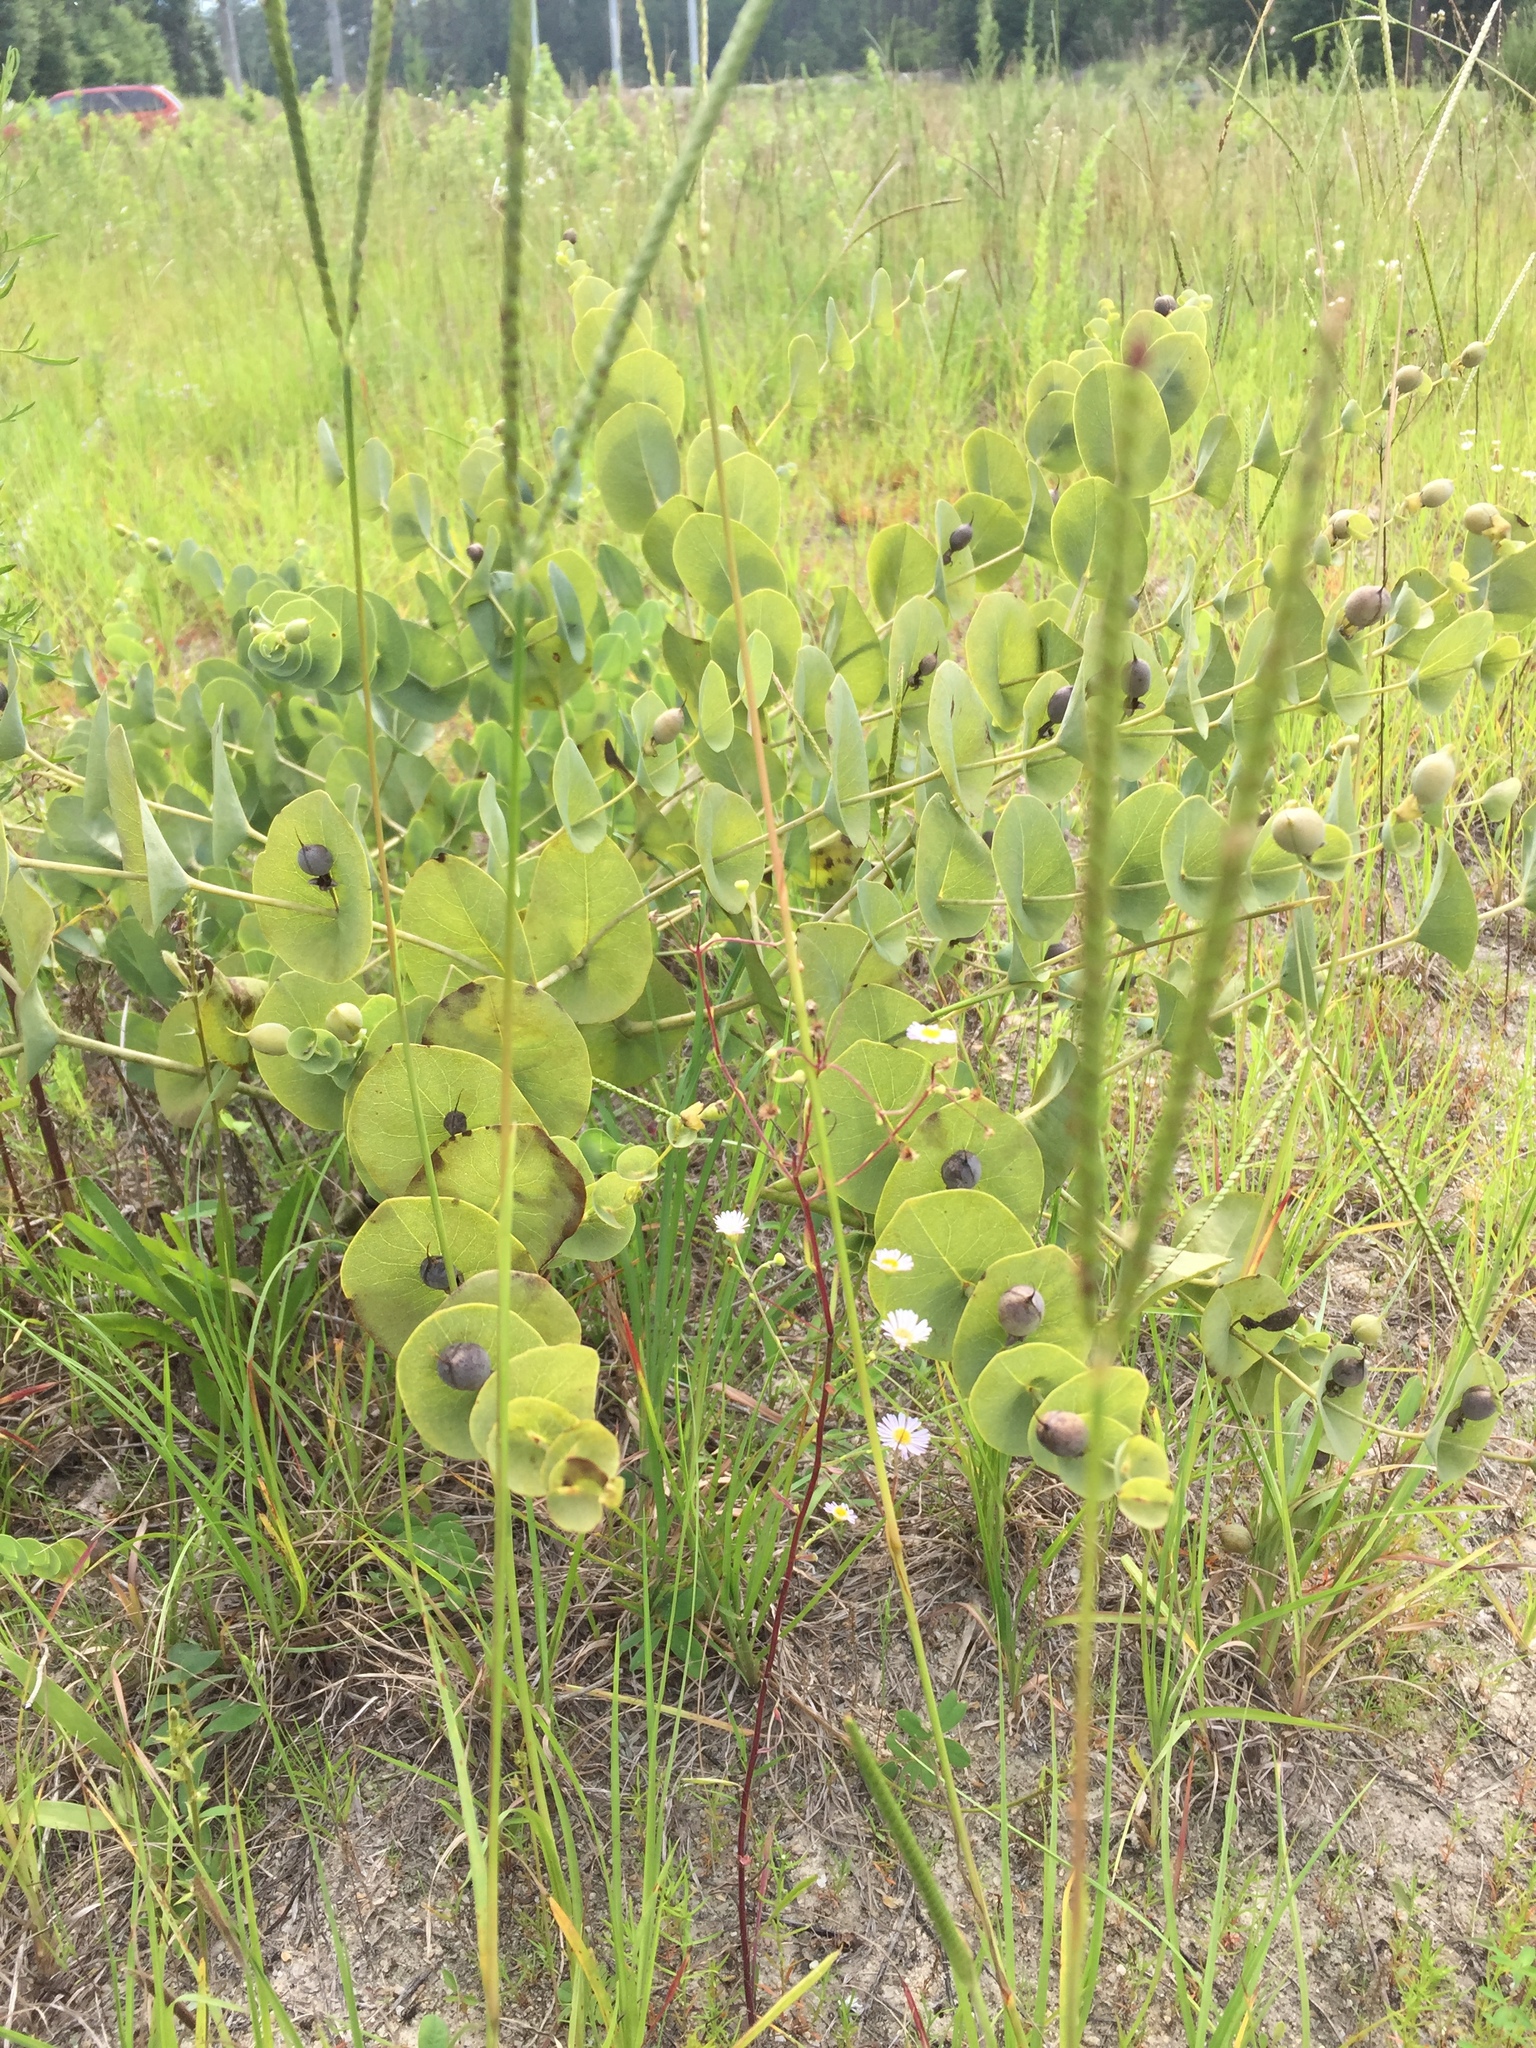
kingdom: Plantae
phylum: Tracheophyta
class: Magnoliopsida
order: Fabales
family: Fabaceae
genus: Baptisia
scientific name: Baptisia perfoliata
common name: Catbells
